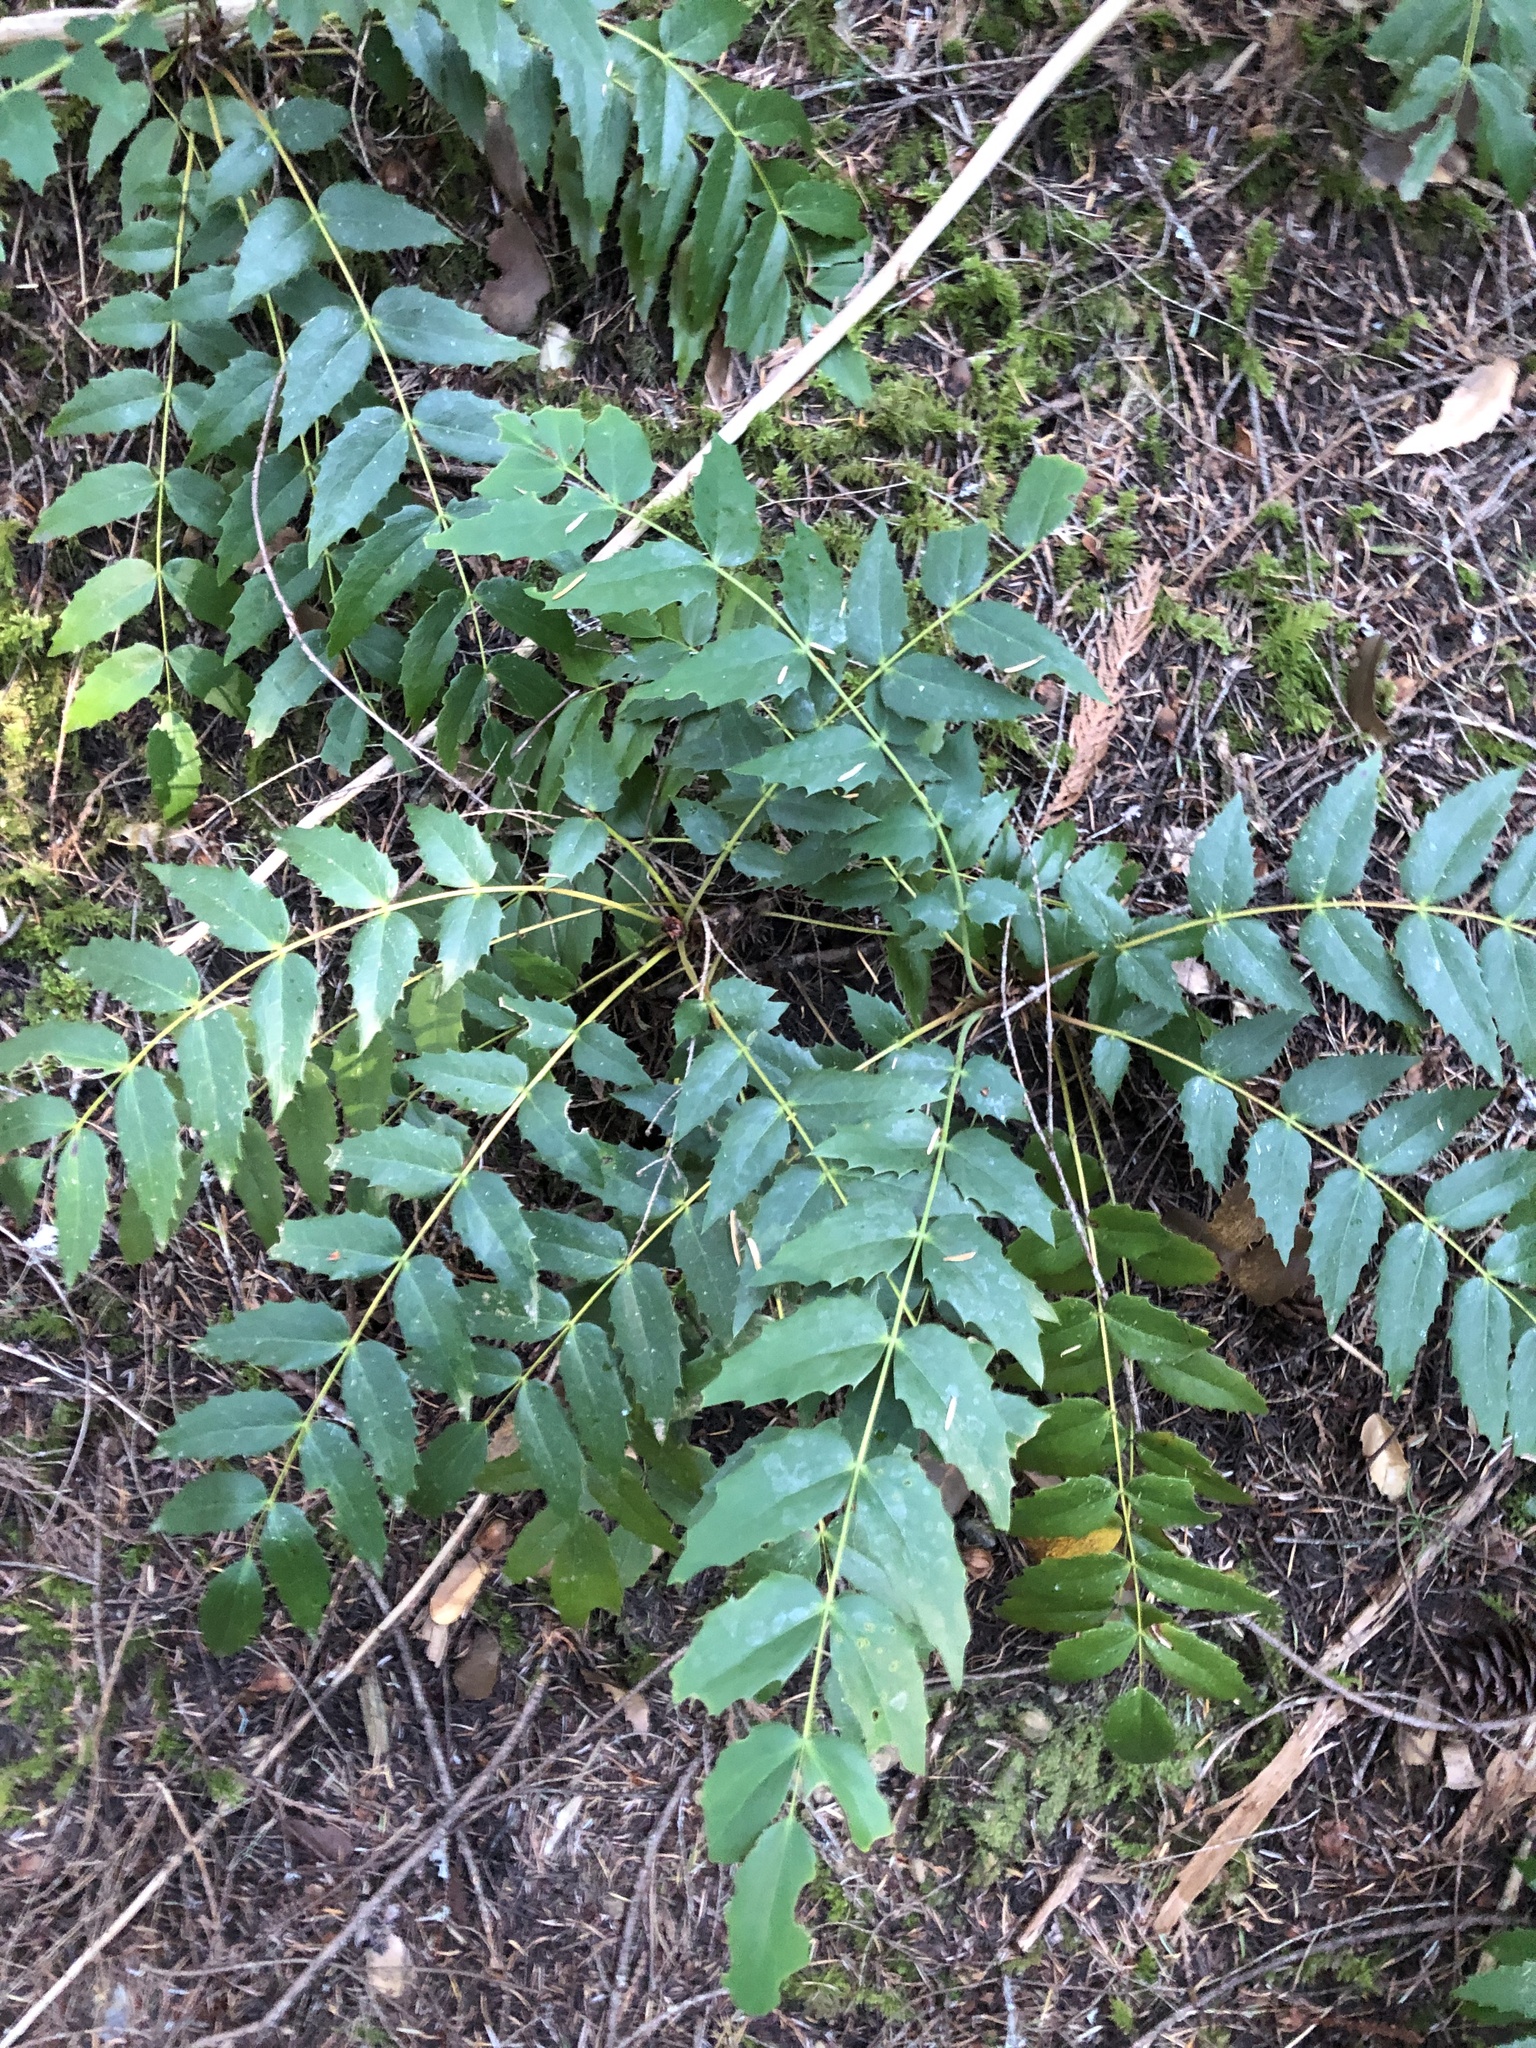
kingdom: Plantae
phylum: Tracheophyta
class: Magnoliopsida
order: Ranunculales
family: Berberidaceae
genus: Mahonia
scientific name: Mahonia nervosa
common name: Cascade oregon-grape
